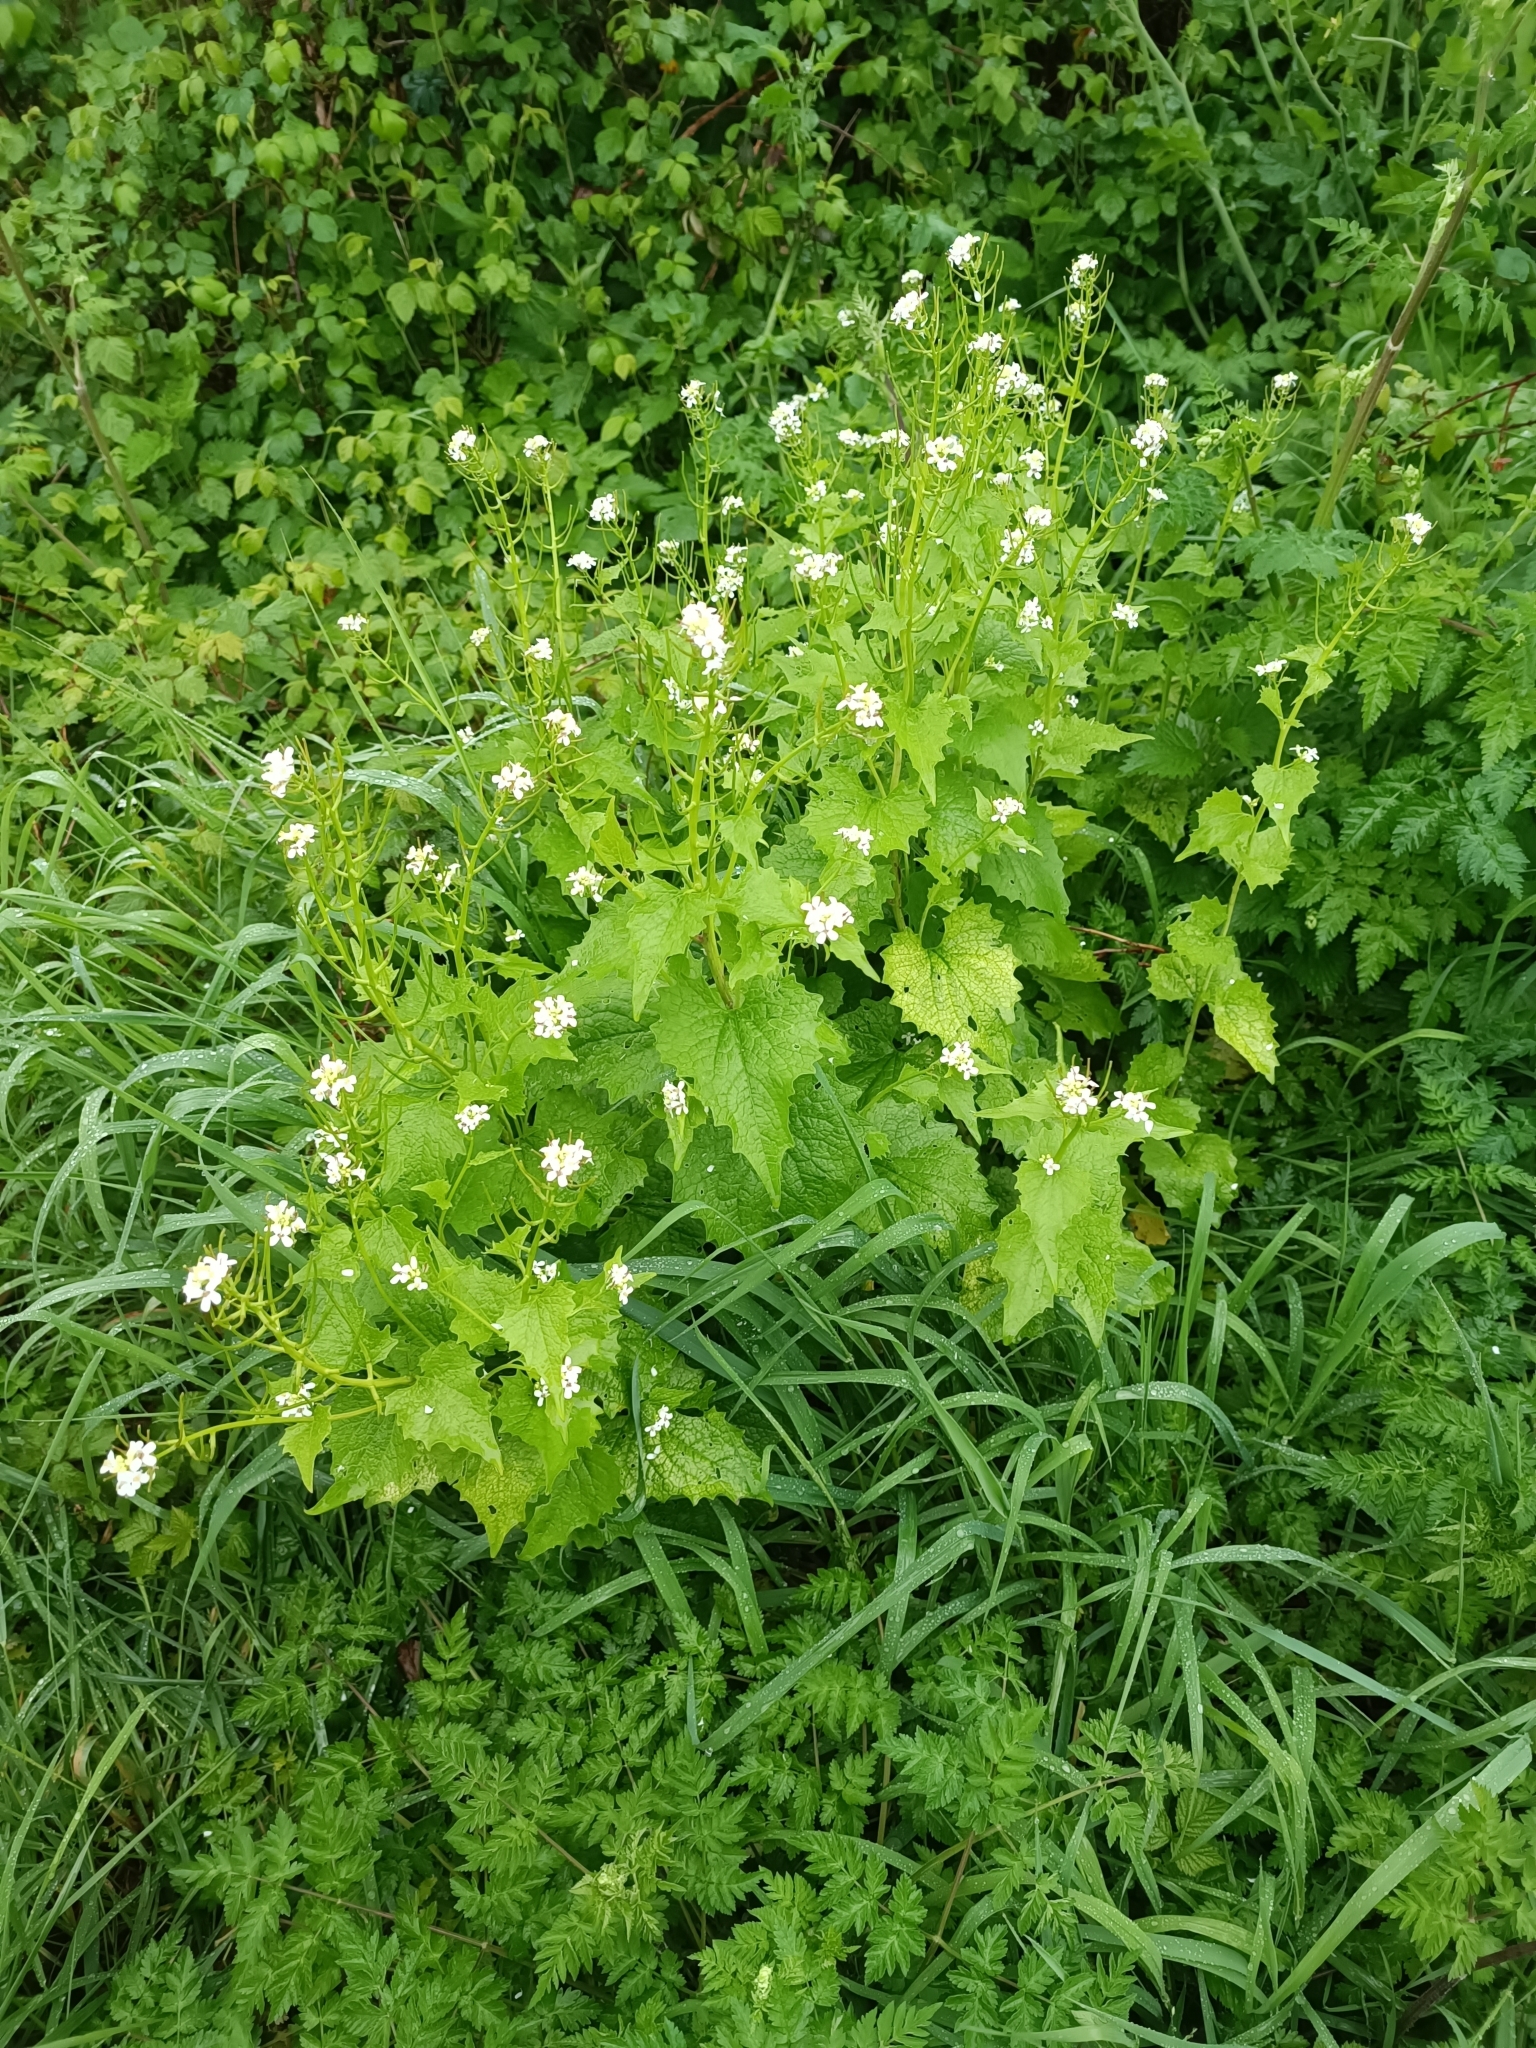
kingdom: Plantae
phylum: Tracheophyta
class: Magnoliopsida
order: Brassicales
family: Brassicaceae
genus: Alliaria
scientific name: Alliaria petiolata
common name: Garlic mustard
